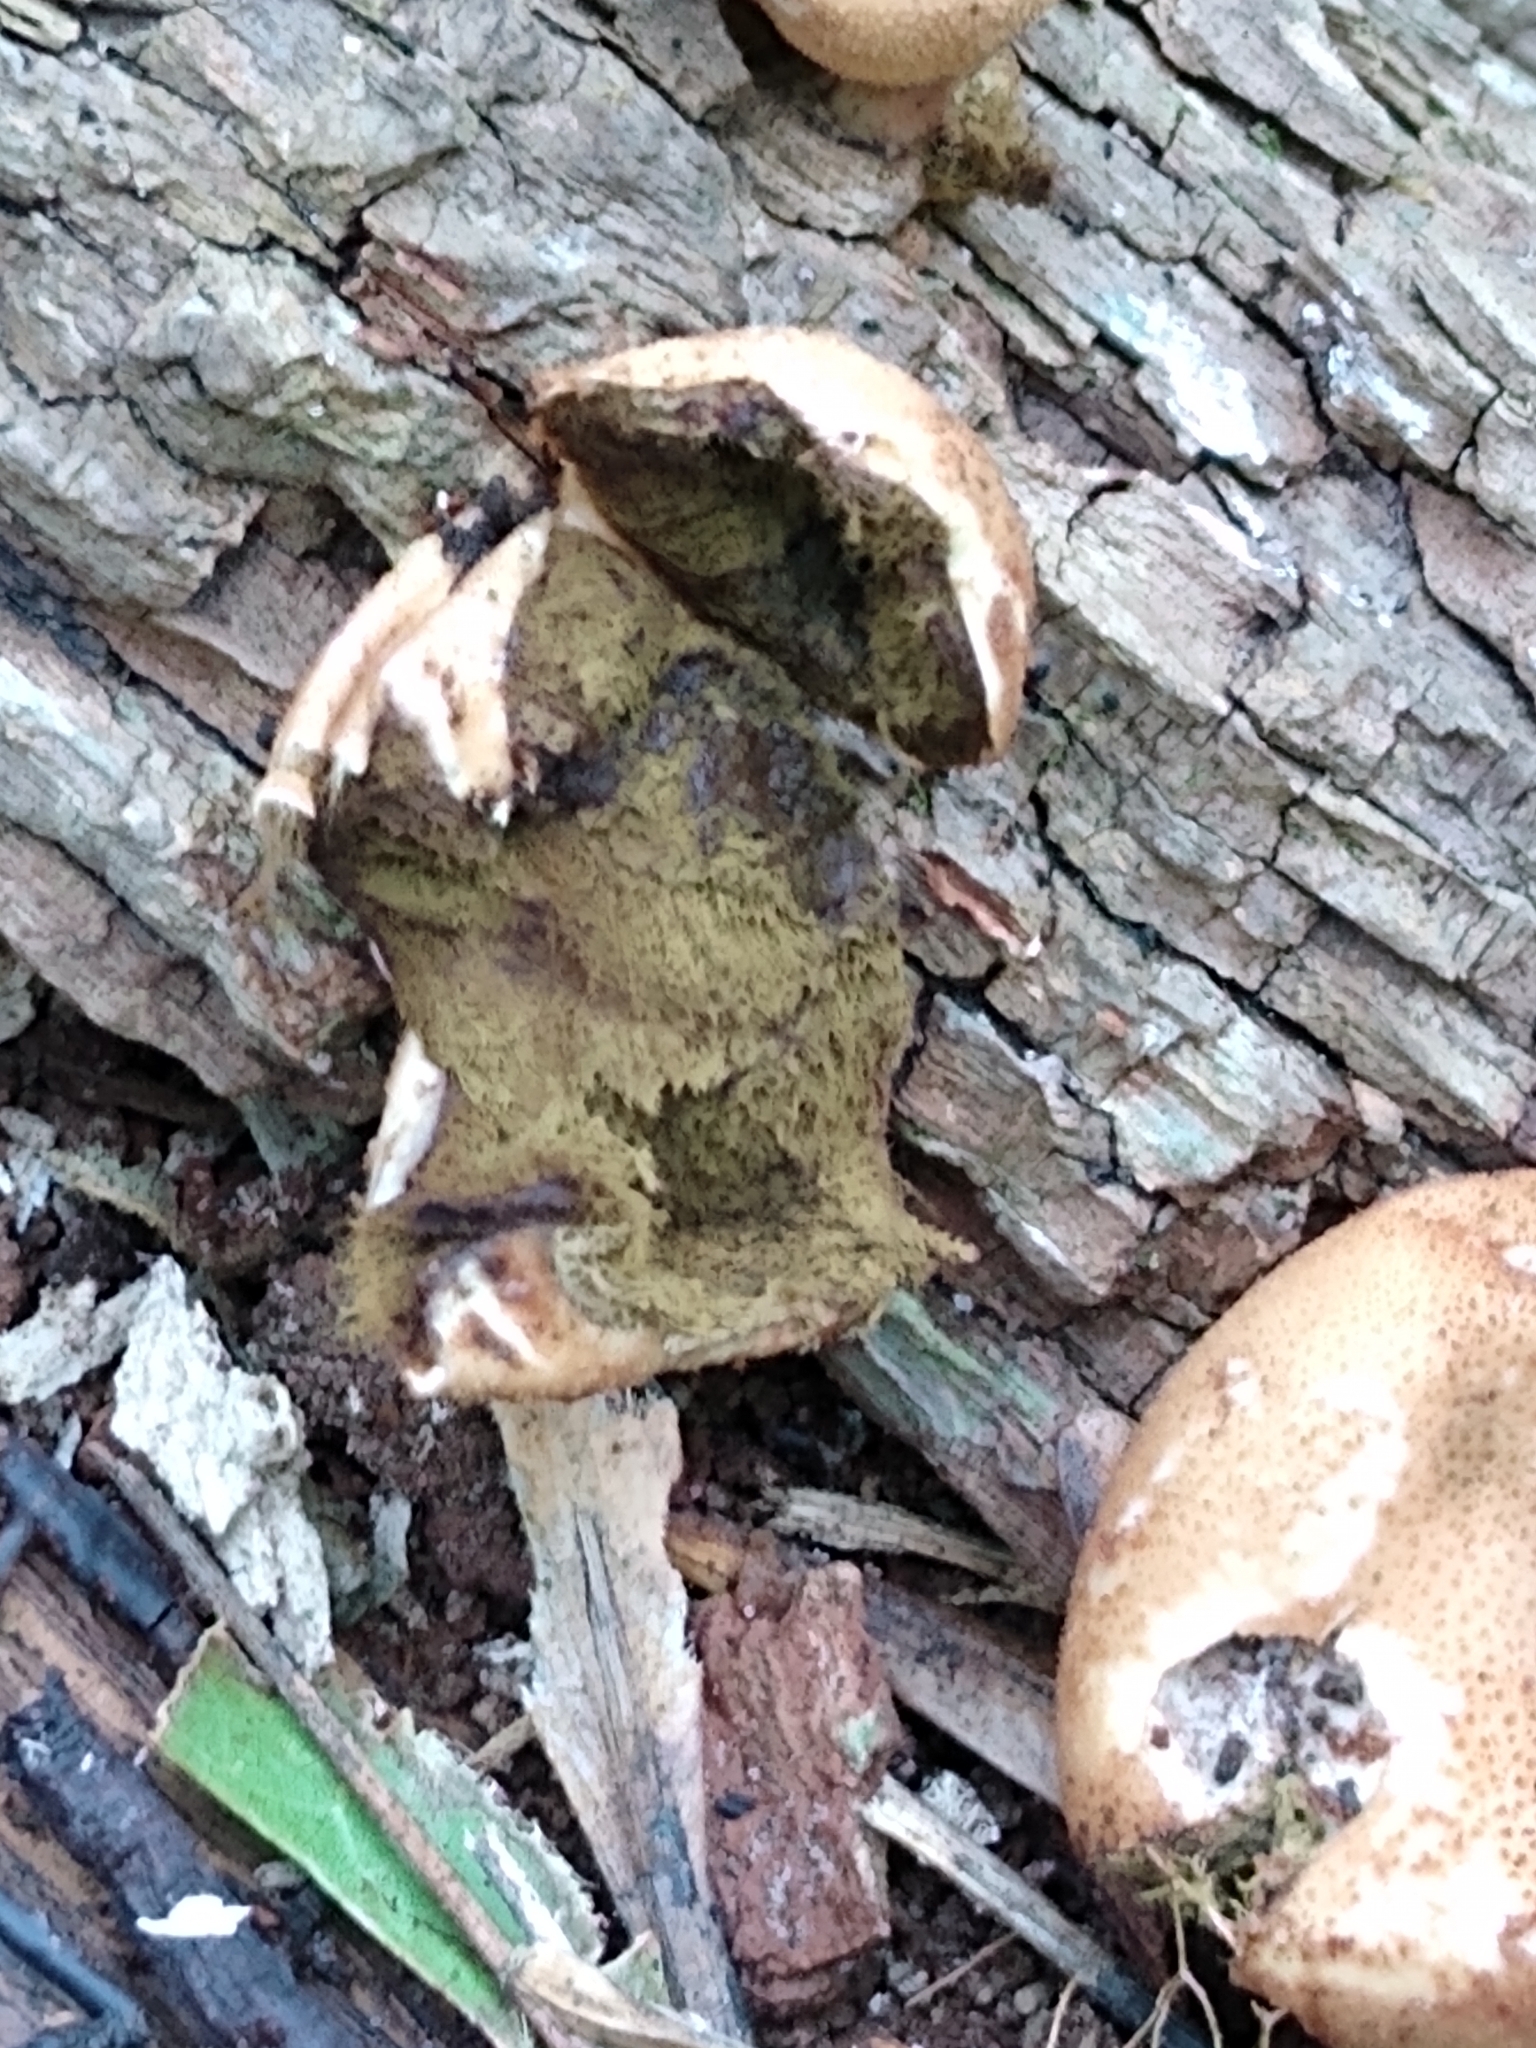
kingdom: Fungi
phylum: Basidiomycota
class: Agaricomycetes
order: Agaricales
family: Lycoperdaceae
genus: Apioperdon
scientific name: Apioperdon pyriforme
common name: Pear-shaped puffball
